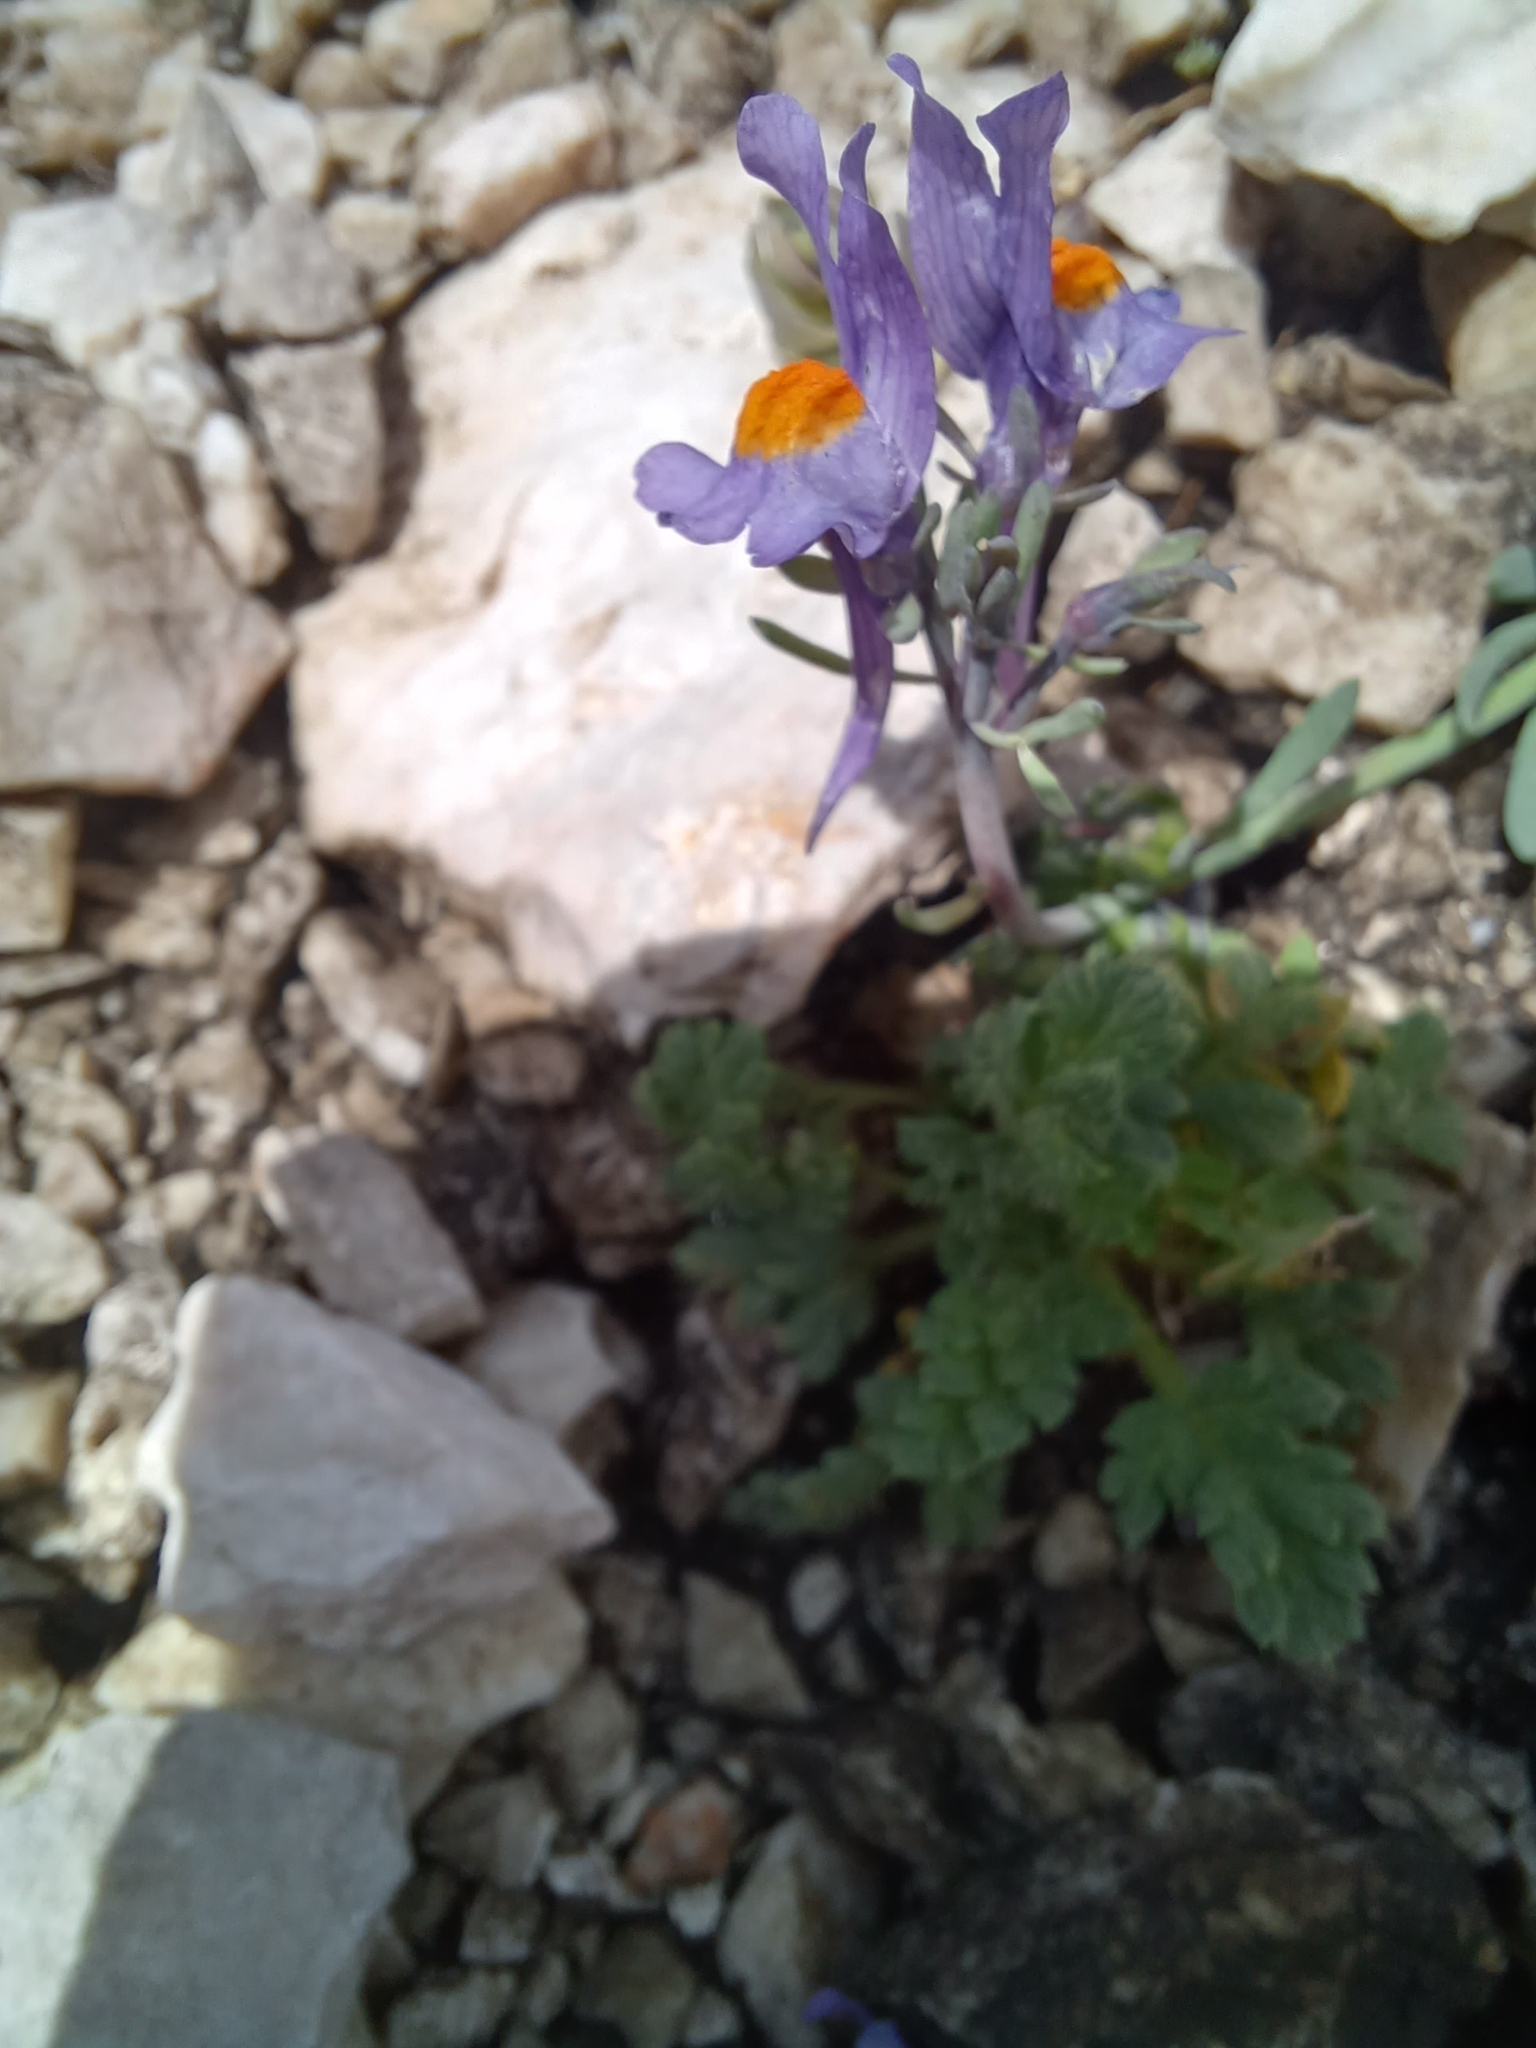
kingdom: Plantae
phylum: Tracheophyta
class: Magnoliopsida
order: Lamiales
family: Plantaginaceae
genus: Linaria
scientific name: Linaria alpina
